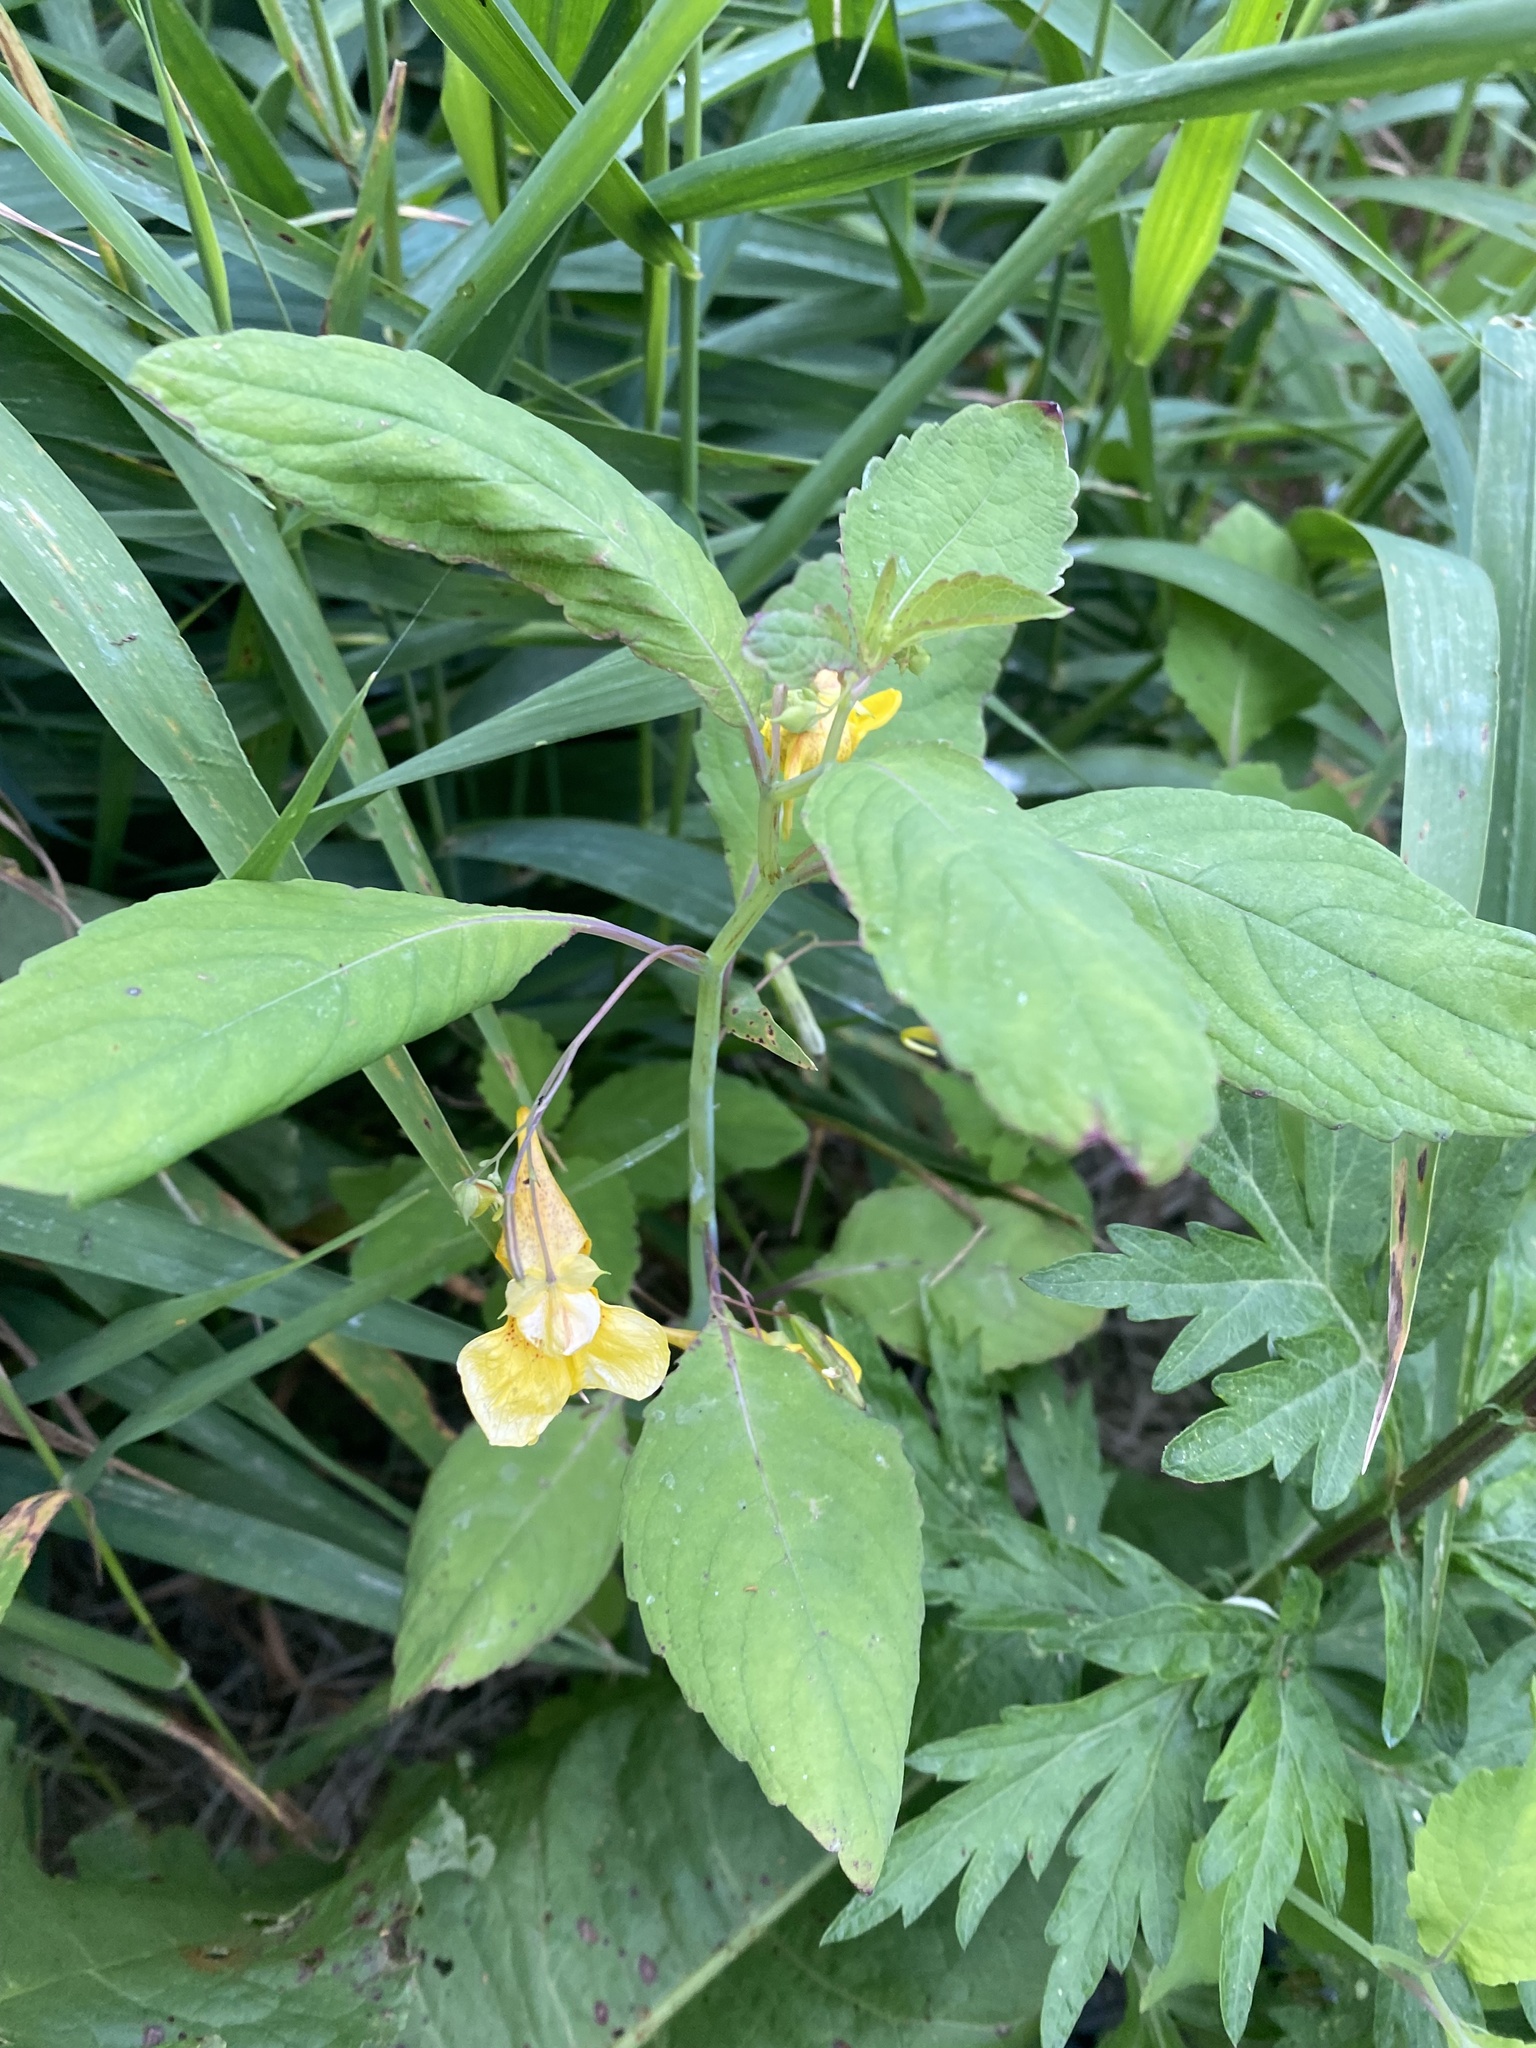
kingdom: Plantae
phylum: Tracheophyta
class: Magnoliopsida
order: Ericales
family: Balsaminaceae
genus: Impatiens
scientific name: Impatiens noli-tangere
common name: Touch-me-not balsam
